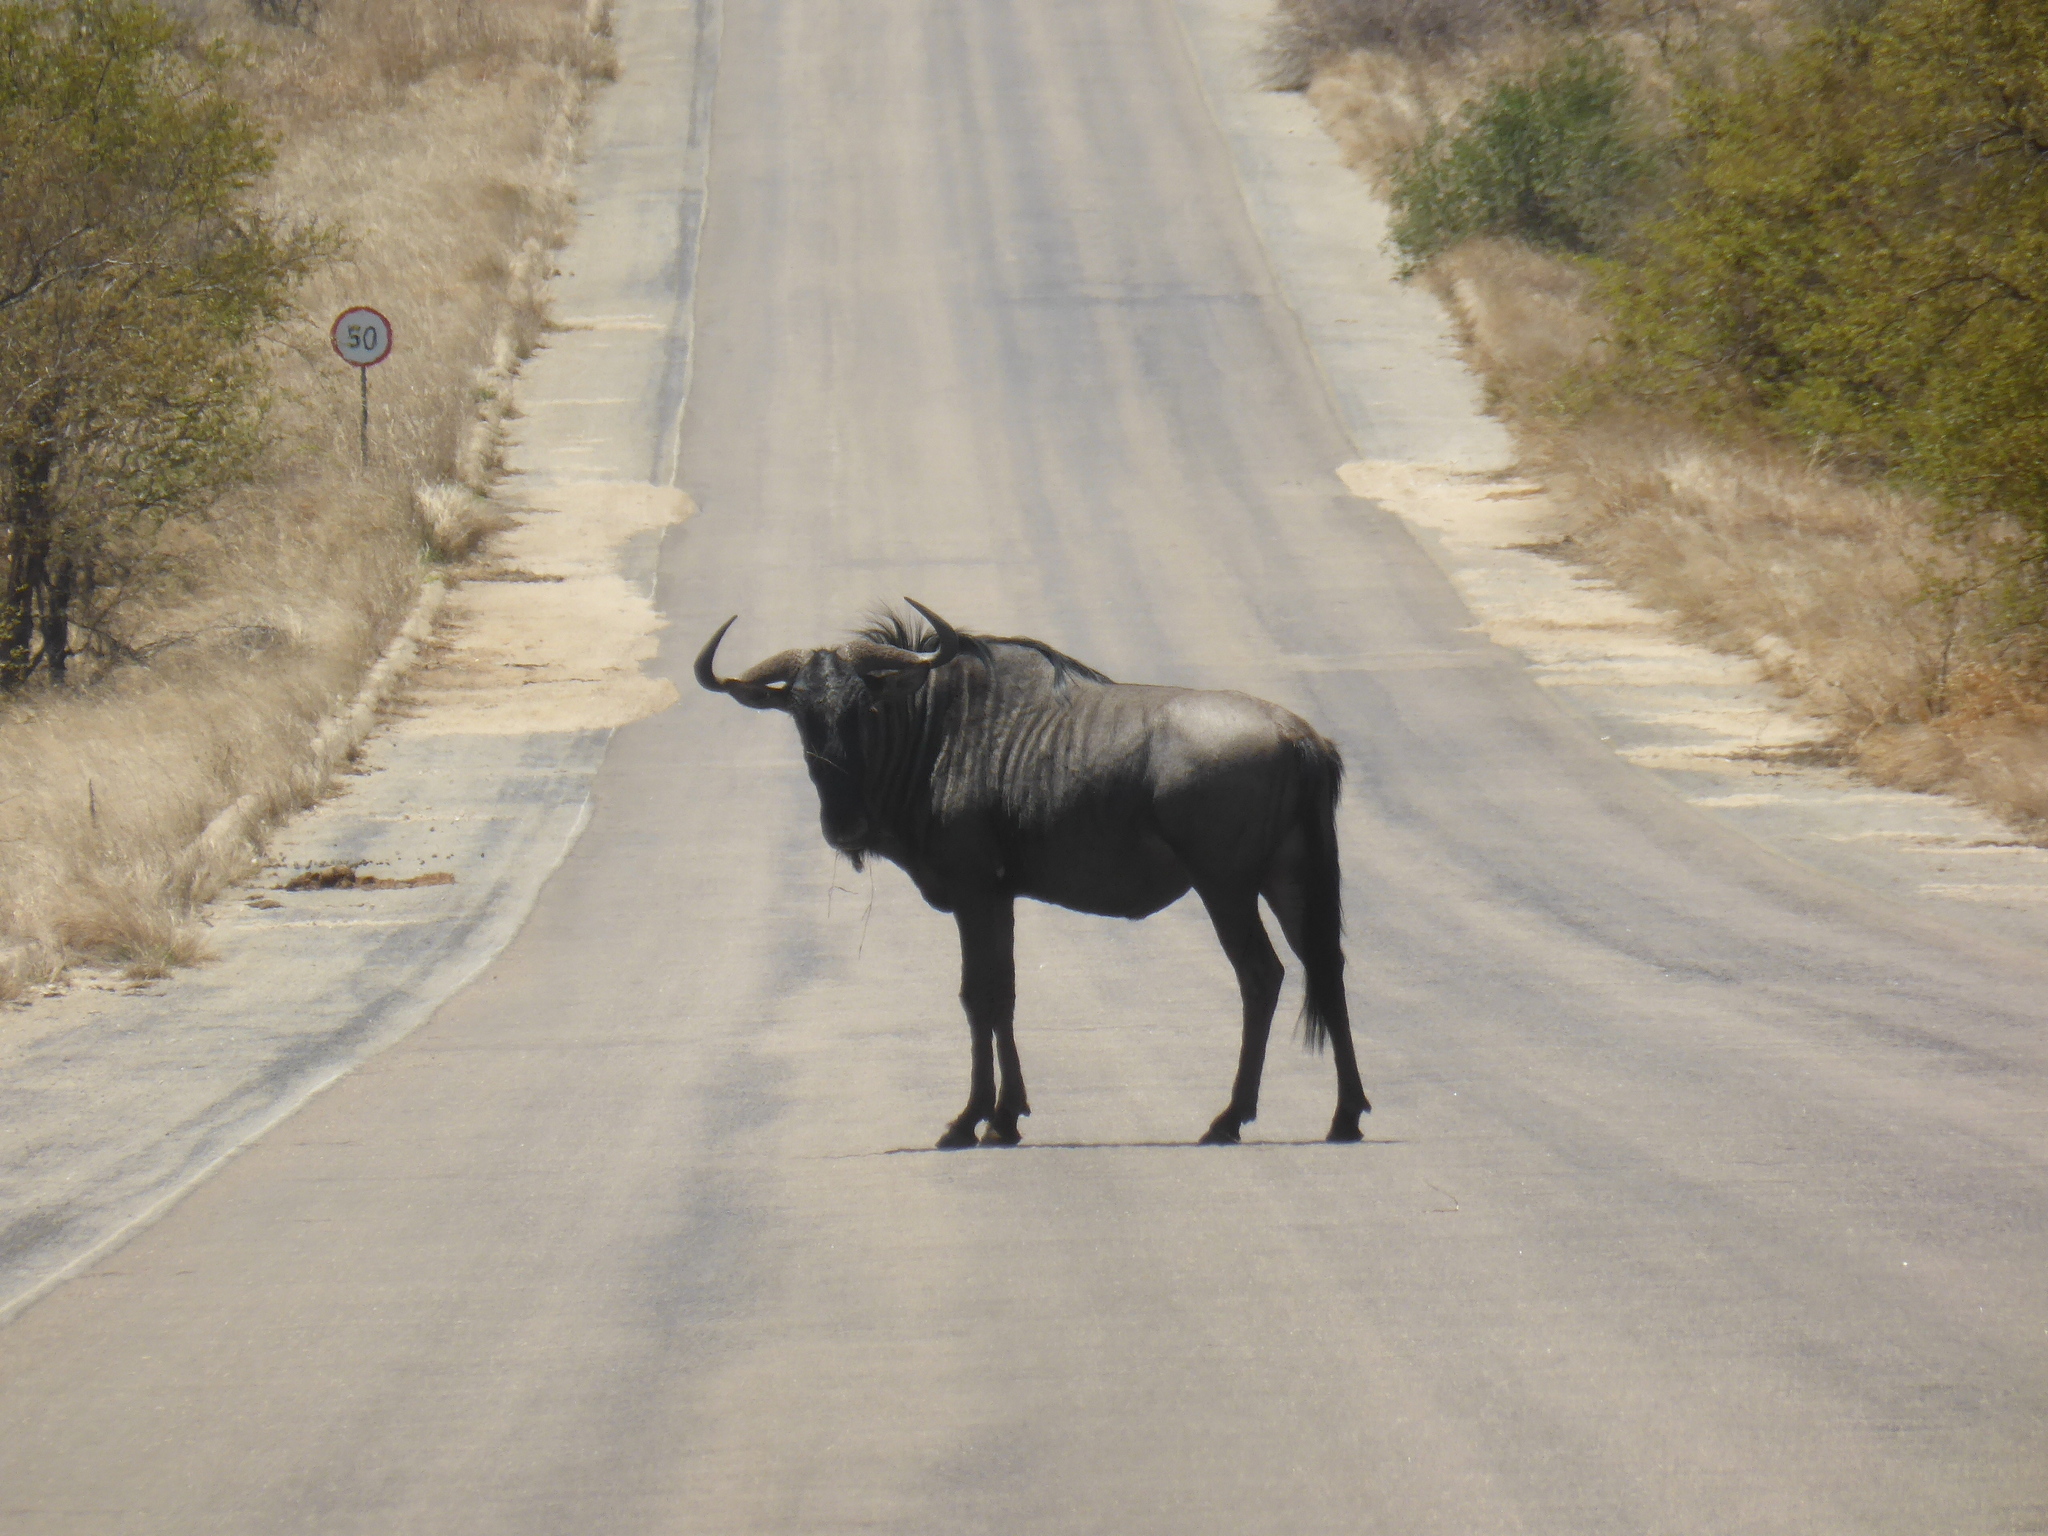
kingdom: Animalia
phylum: Chordata
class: Mammalia
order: Artiodactyla
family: Bovidae
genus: Connochaetes
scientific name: Connochaetes taurinus
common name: Blue wildebeest
